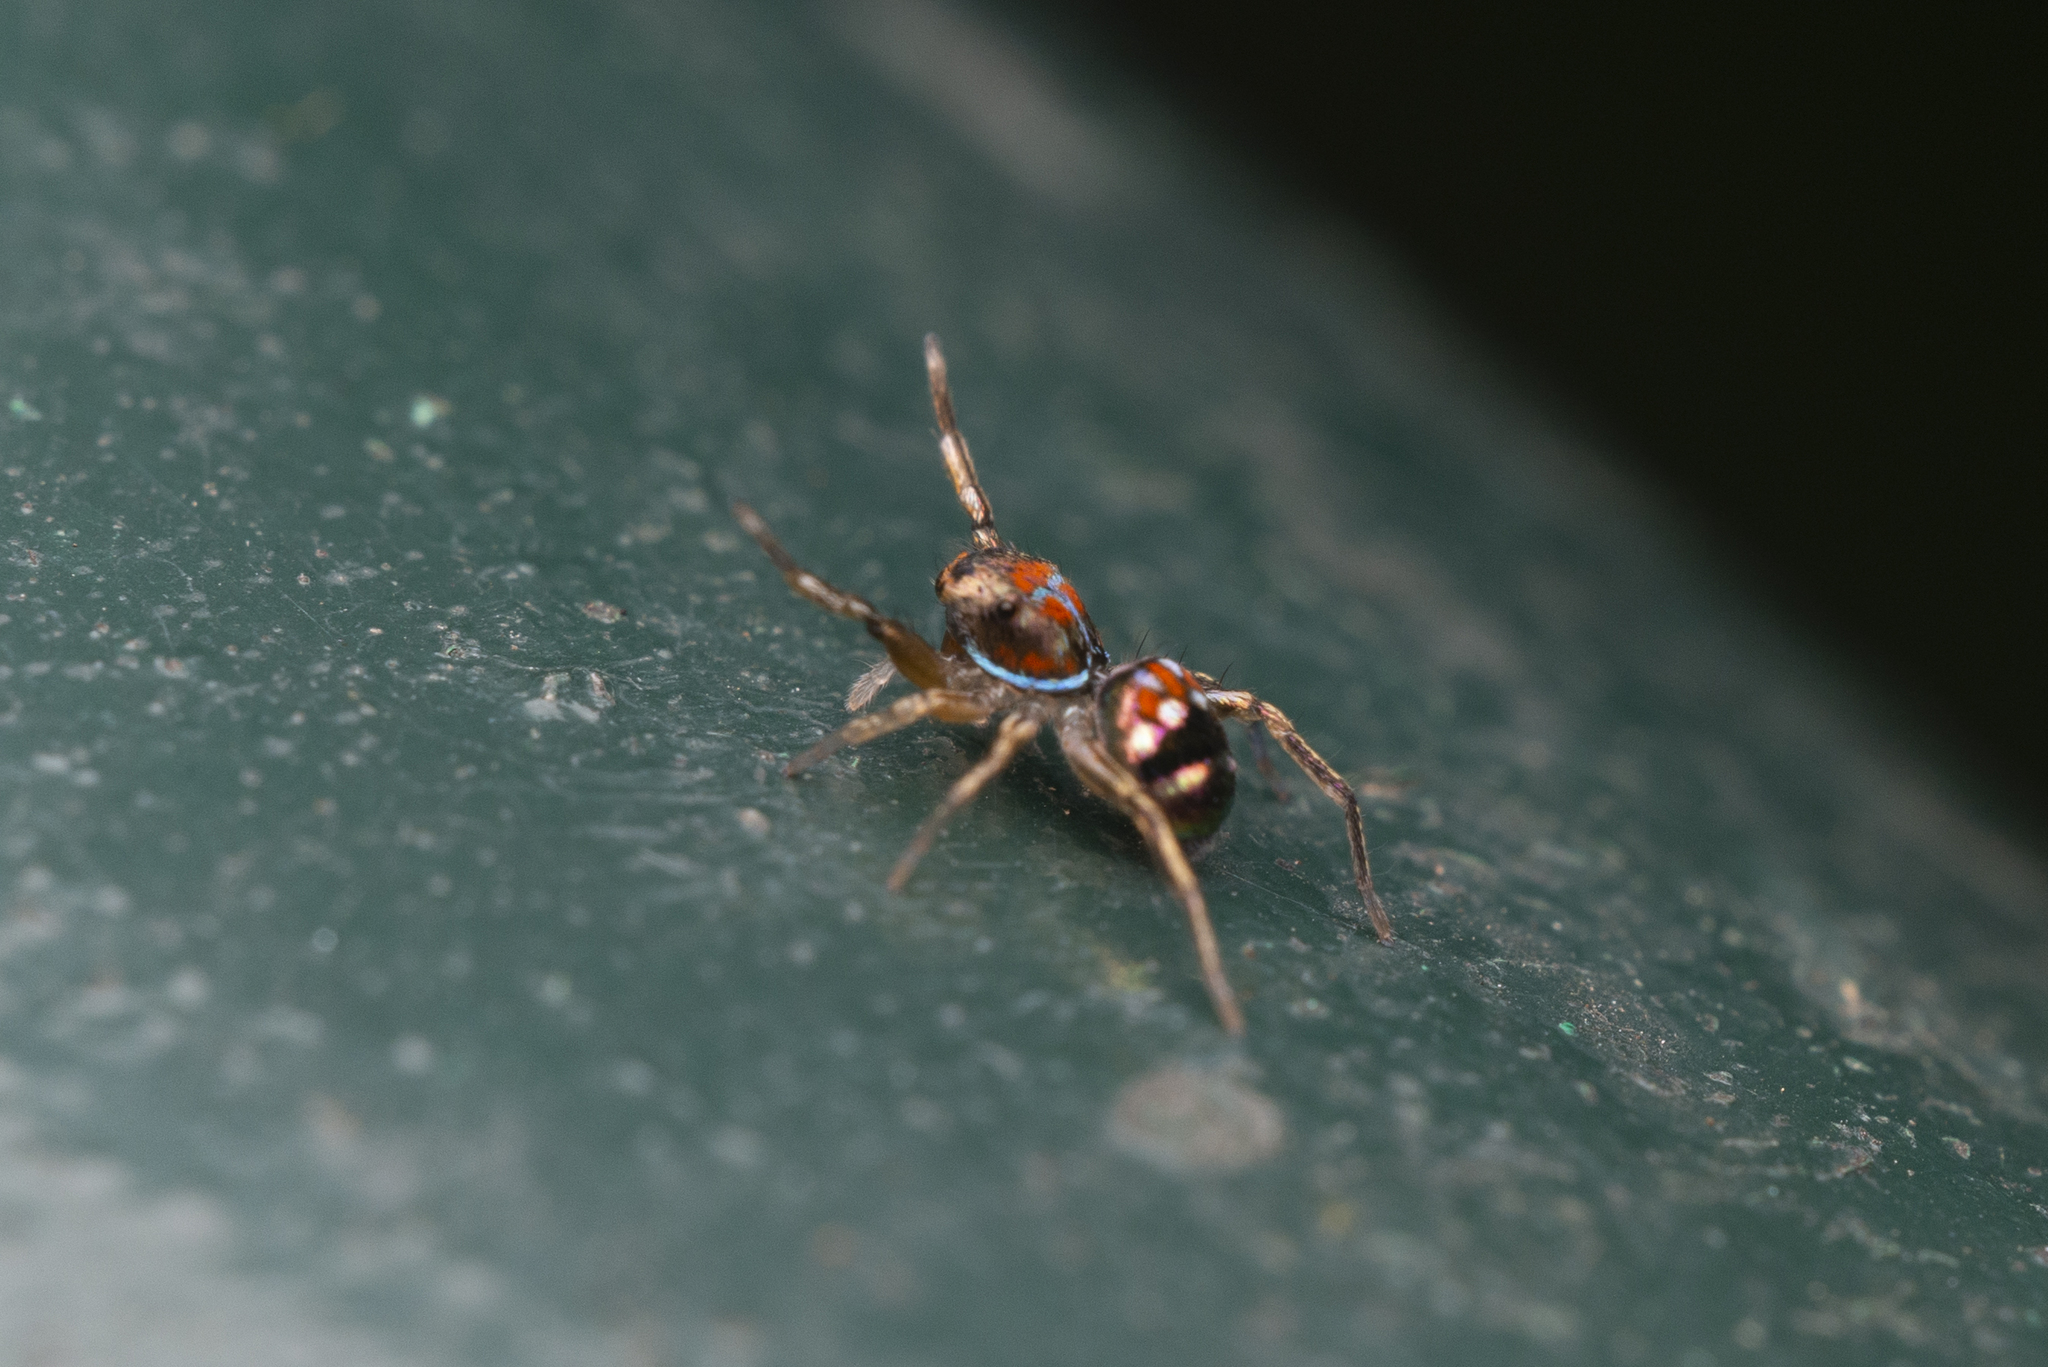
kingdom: Animalia
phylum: Arthropoda
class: Arachnida
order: Araneae
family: Salticidae
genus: Siler
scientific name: Siler collingwoodi
